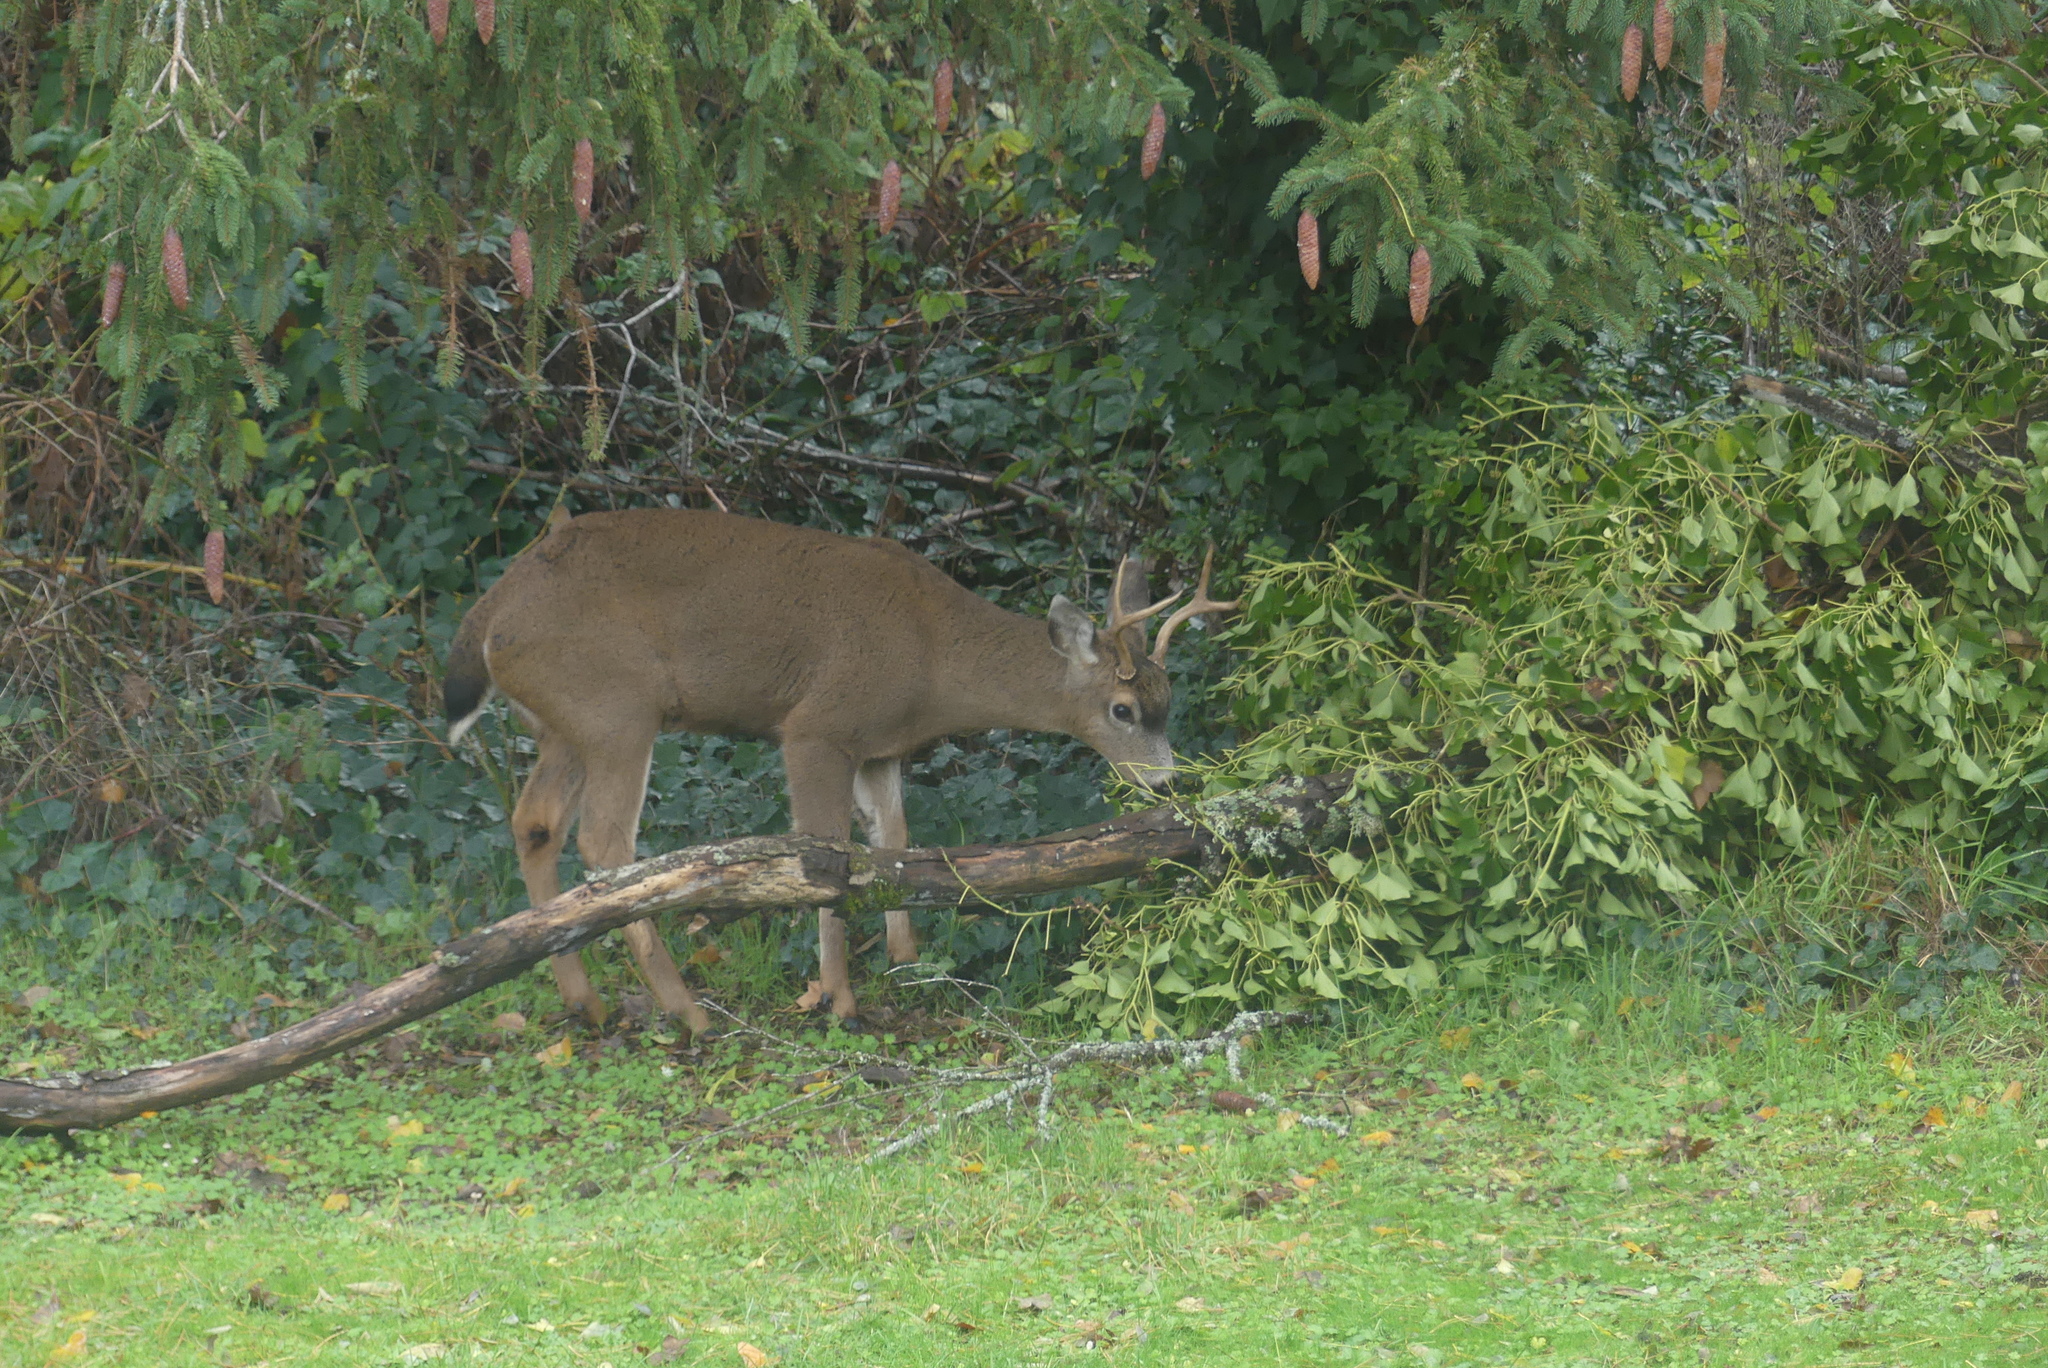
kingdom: Animalia
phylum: Chordata
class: Mammalia
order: Artiodactyla
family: Cervidae
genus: Odocoileus
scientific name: Odocoileus hemionus
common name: Mule deer
